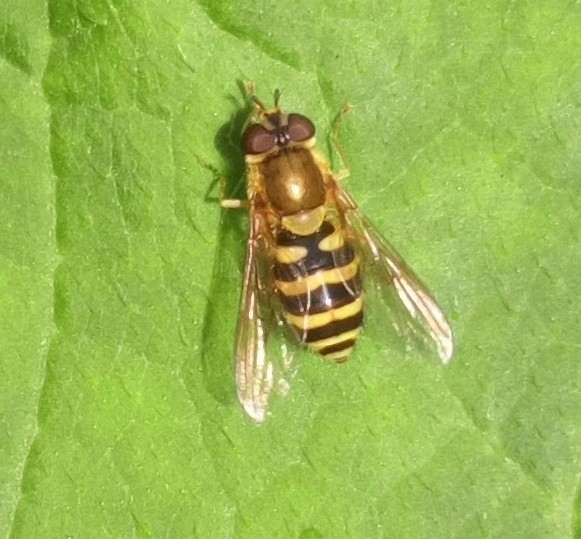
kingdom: Animalia
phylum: Arthropoda
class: Insecta
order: Diptera
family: Syrphidae
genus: Syrphus
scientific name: Syrphus
